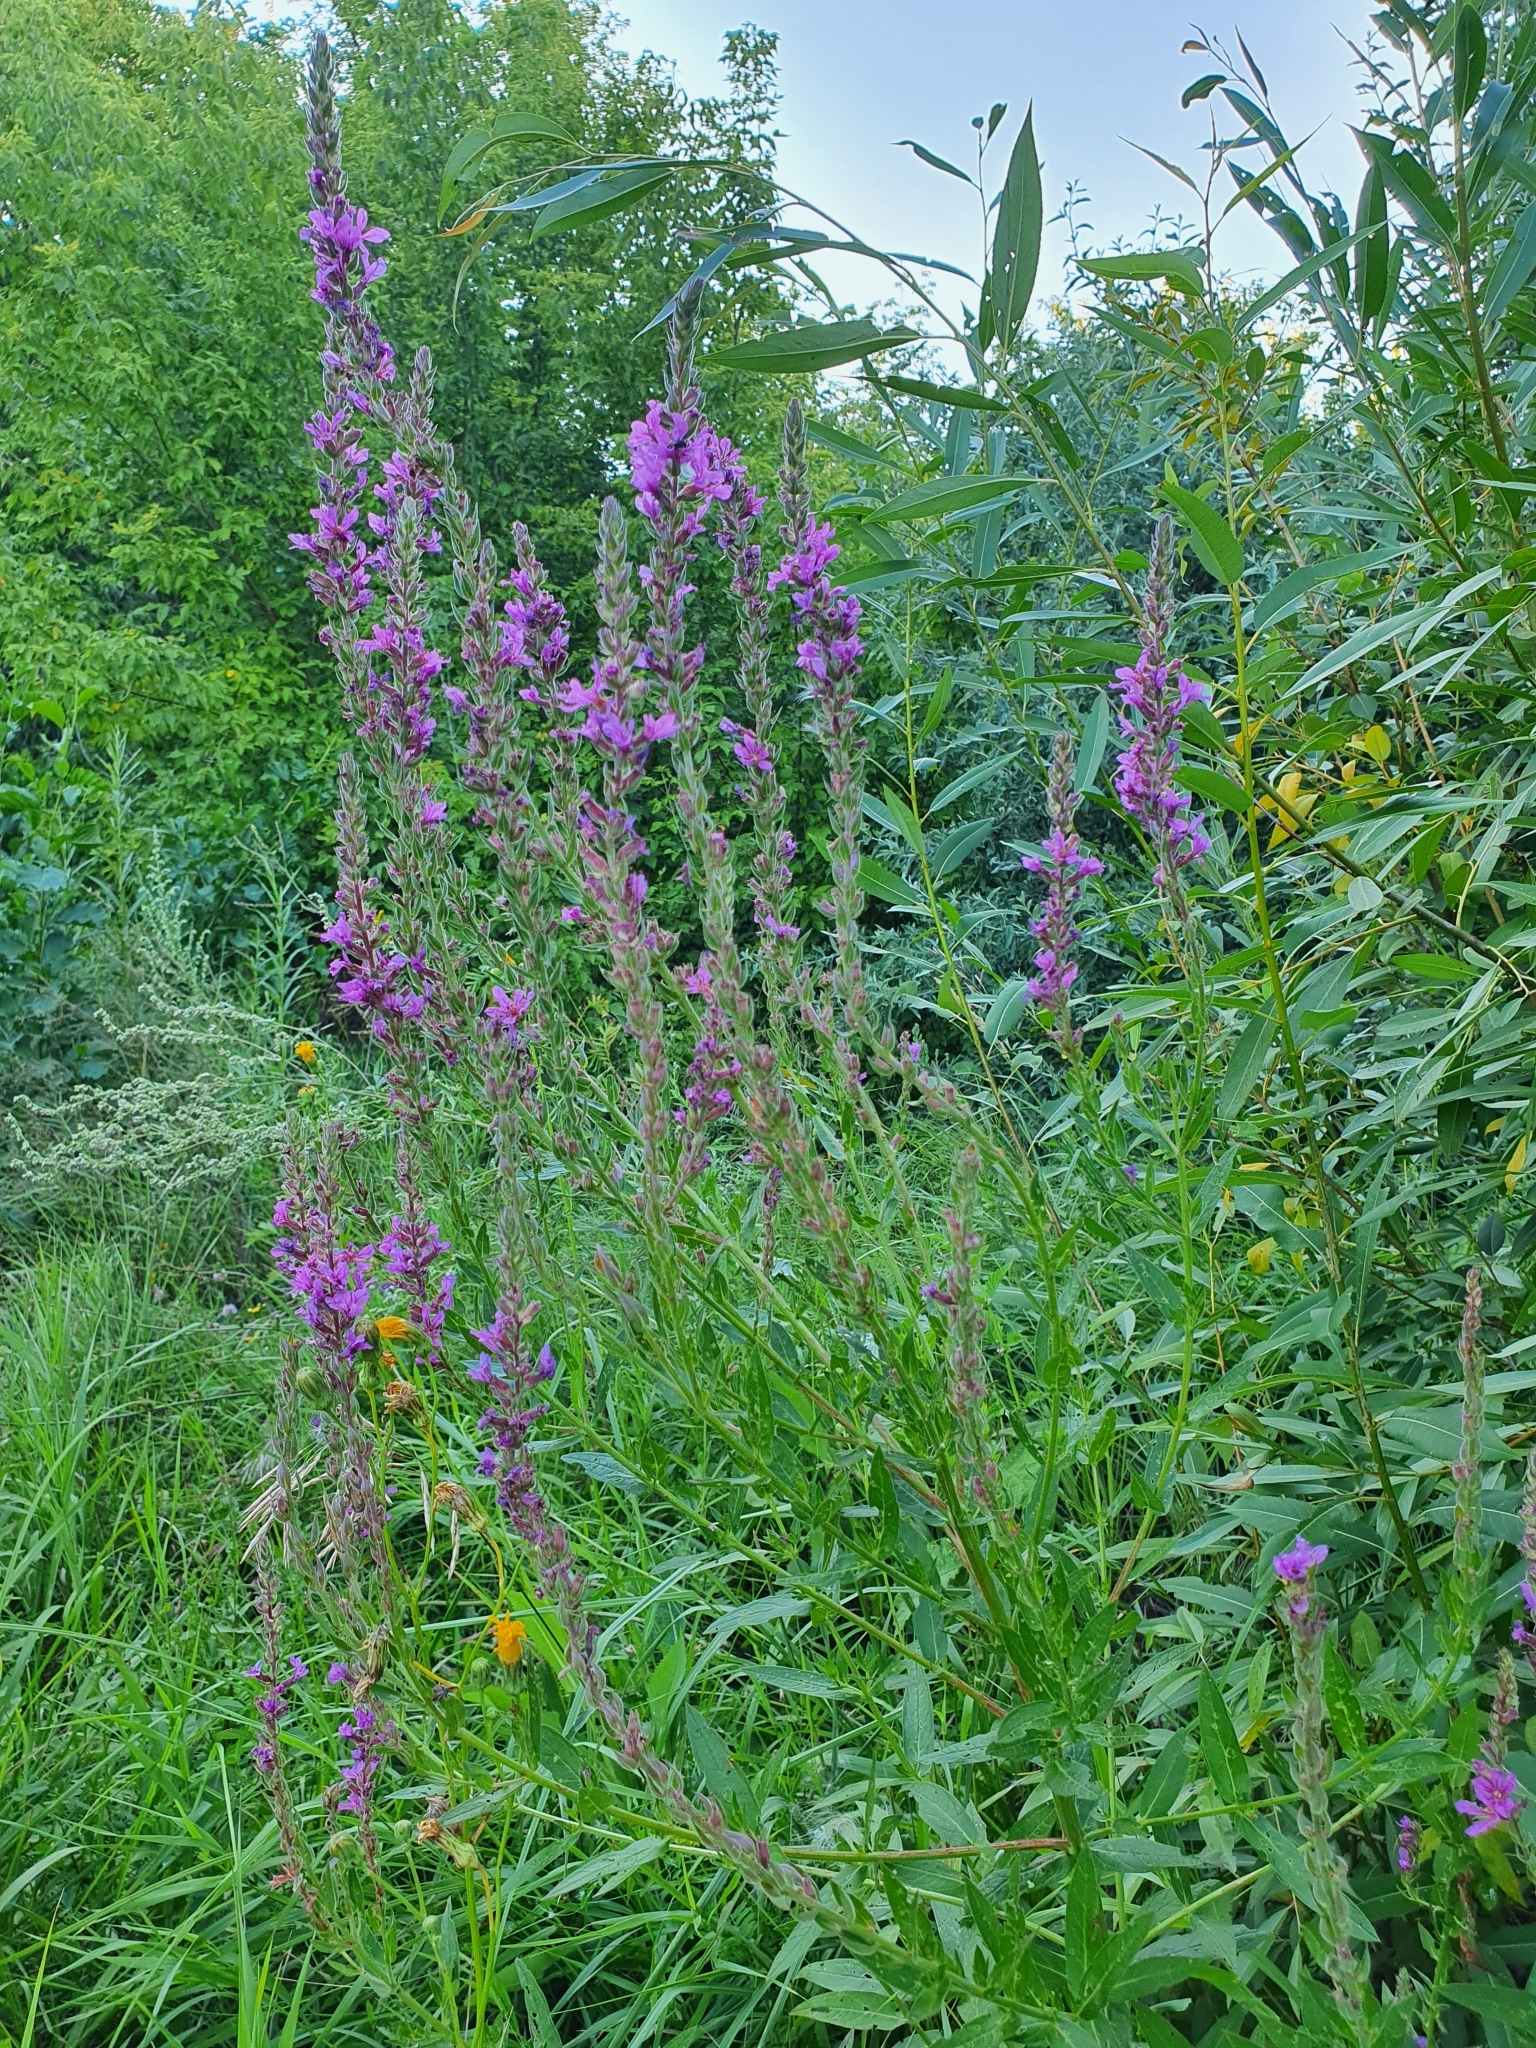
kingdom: Plantae
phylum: Tracheophyta
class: Magnoliopsida
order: Myrtales
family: Lythraceae
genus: Lythrum
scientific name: Lythrum salicaria
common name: Purple loosestrife
